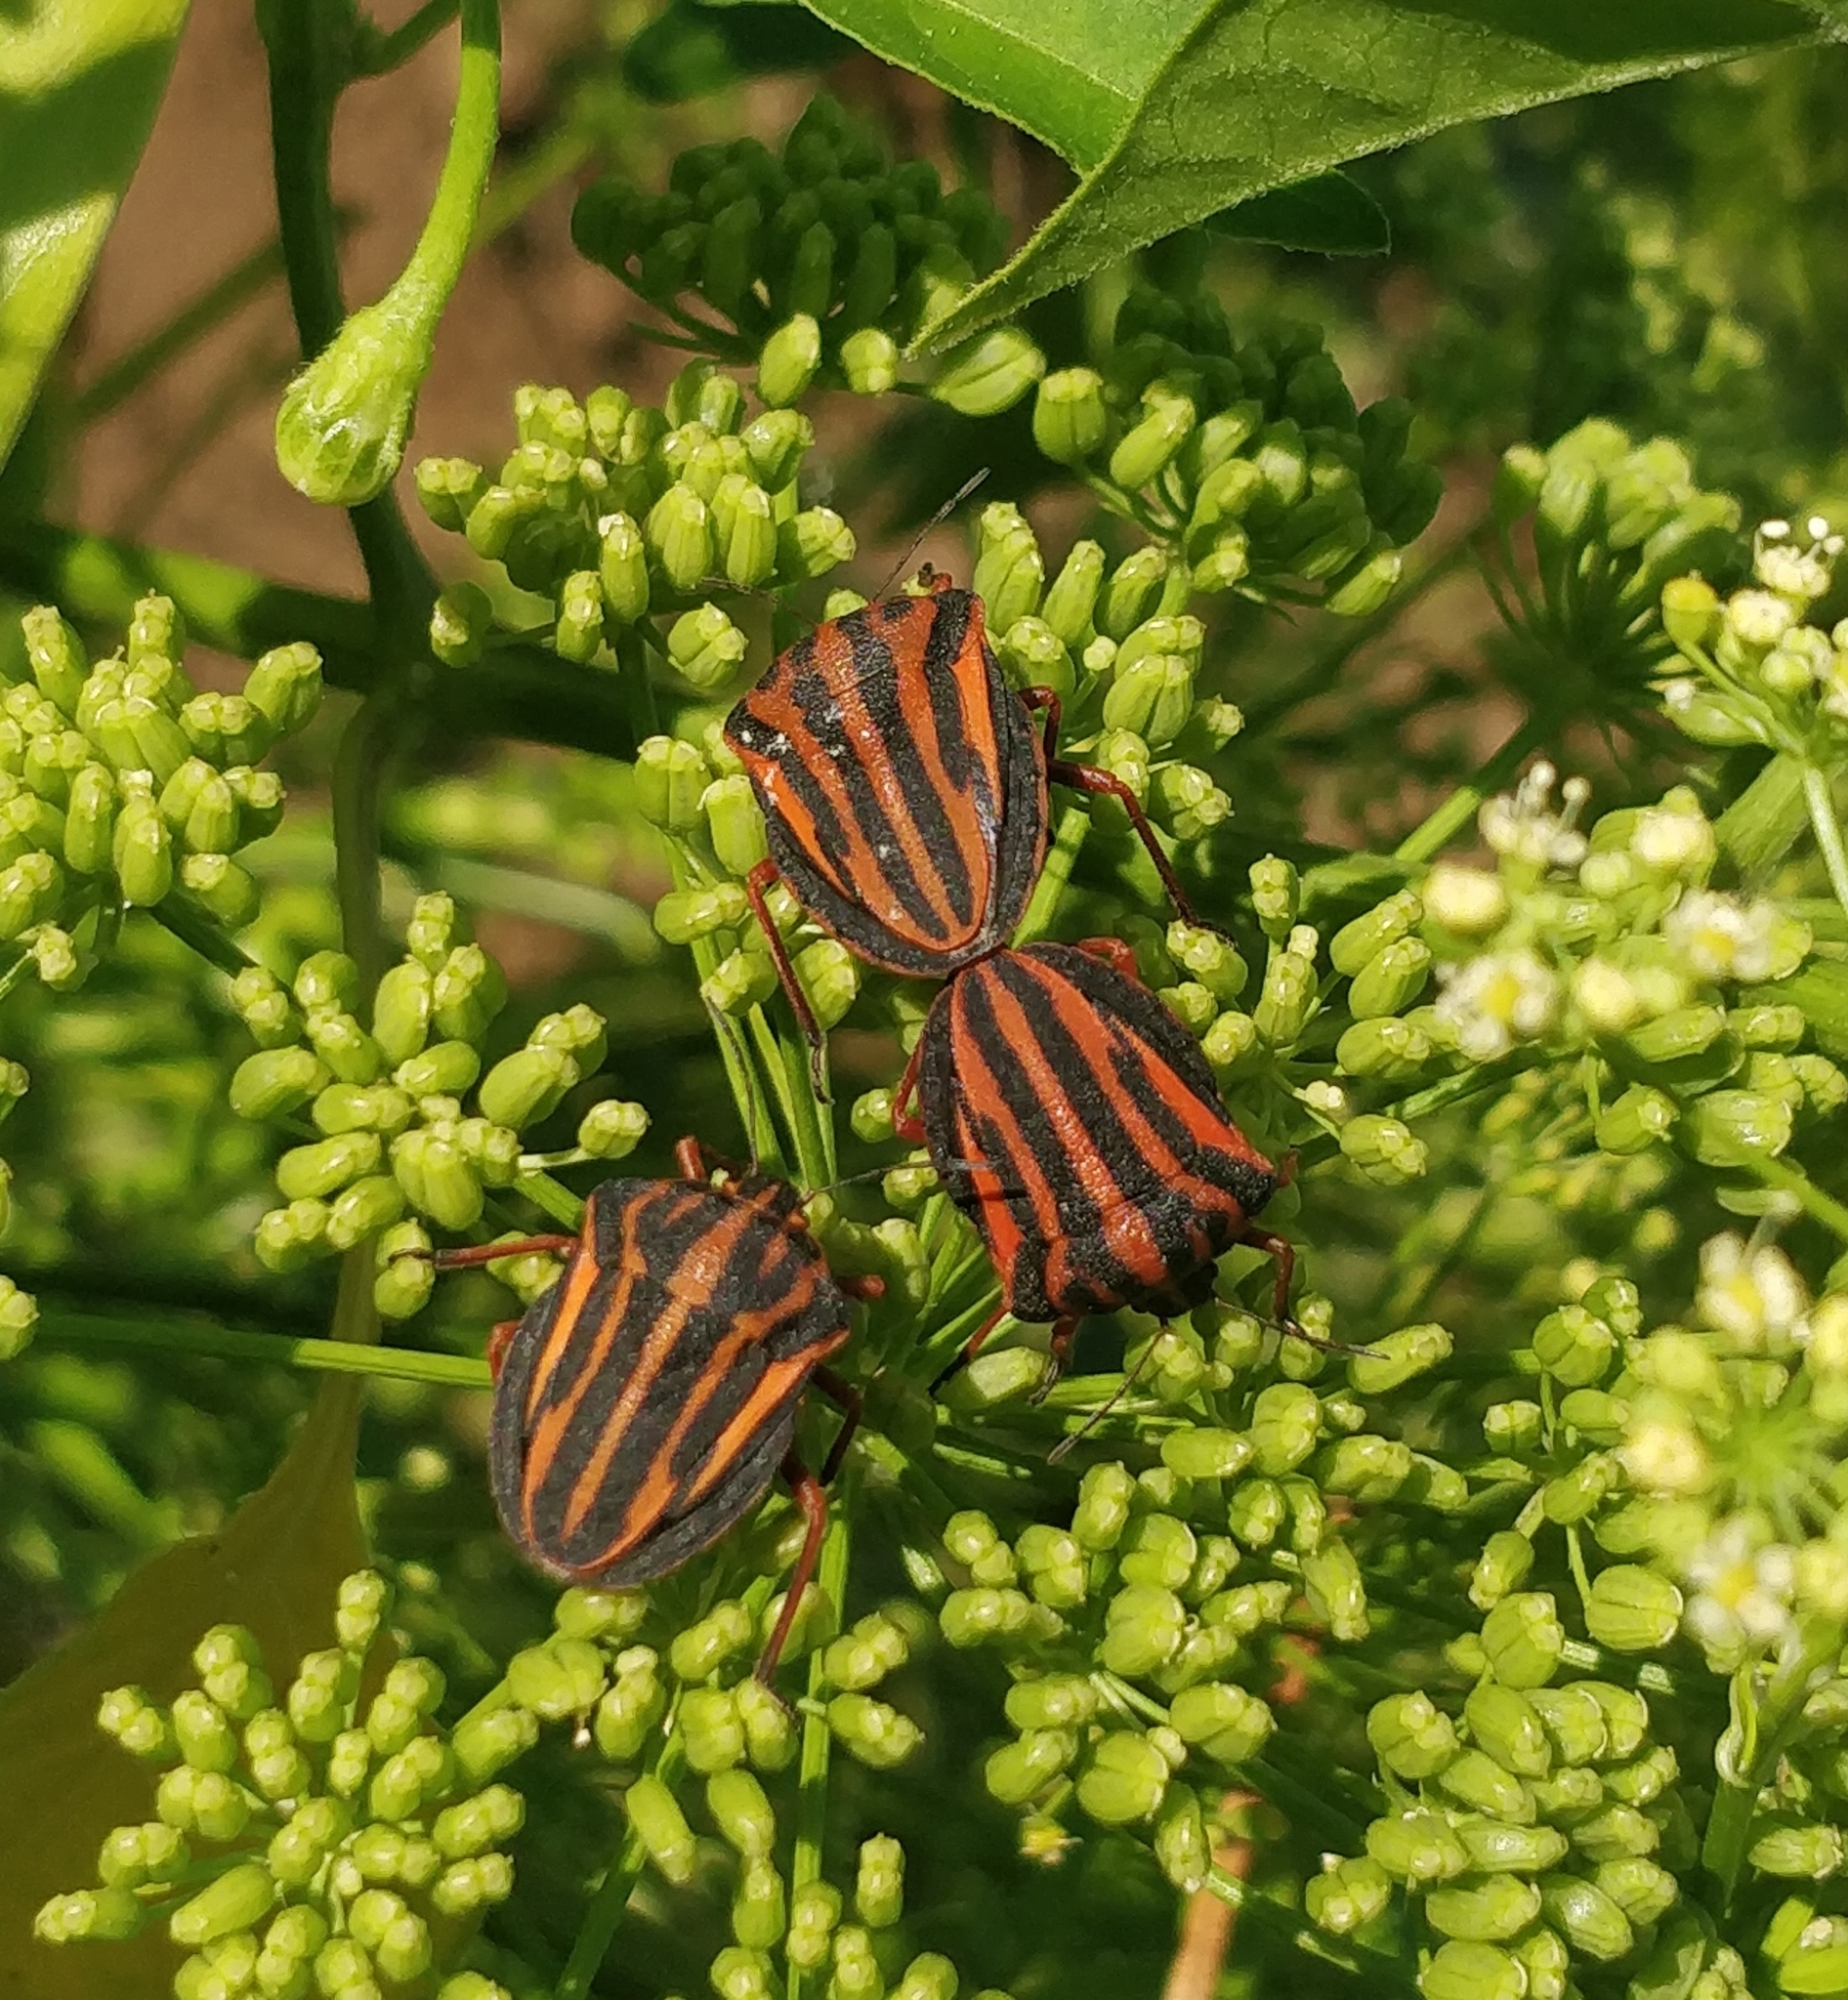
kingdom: Animalia
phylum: Arthropoda
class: Insecta
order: Hemiptera
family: Pentatomidae
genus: Graphosoma
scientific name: Graphosoma interruptum
